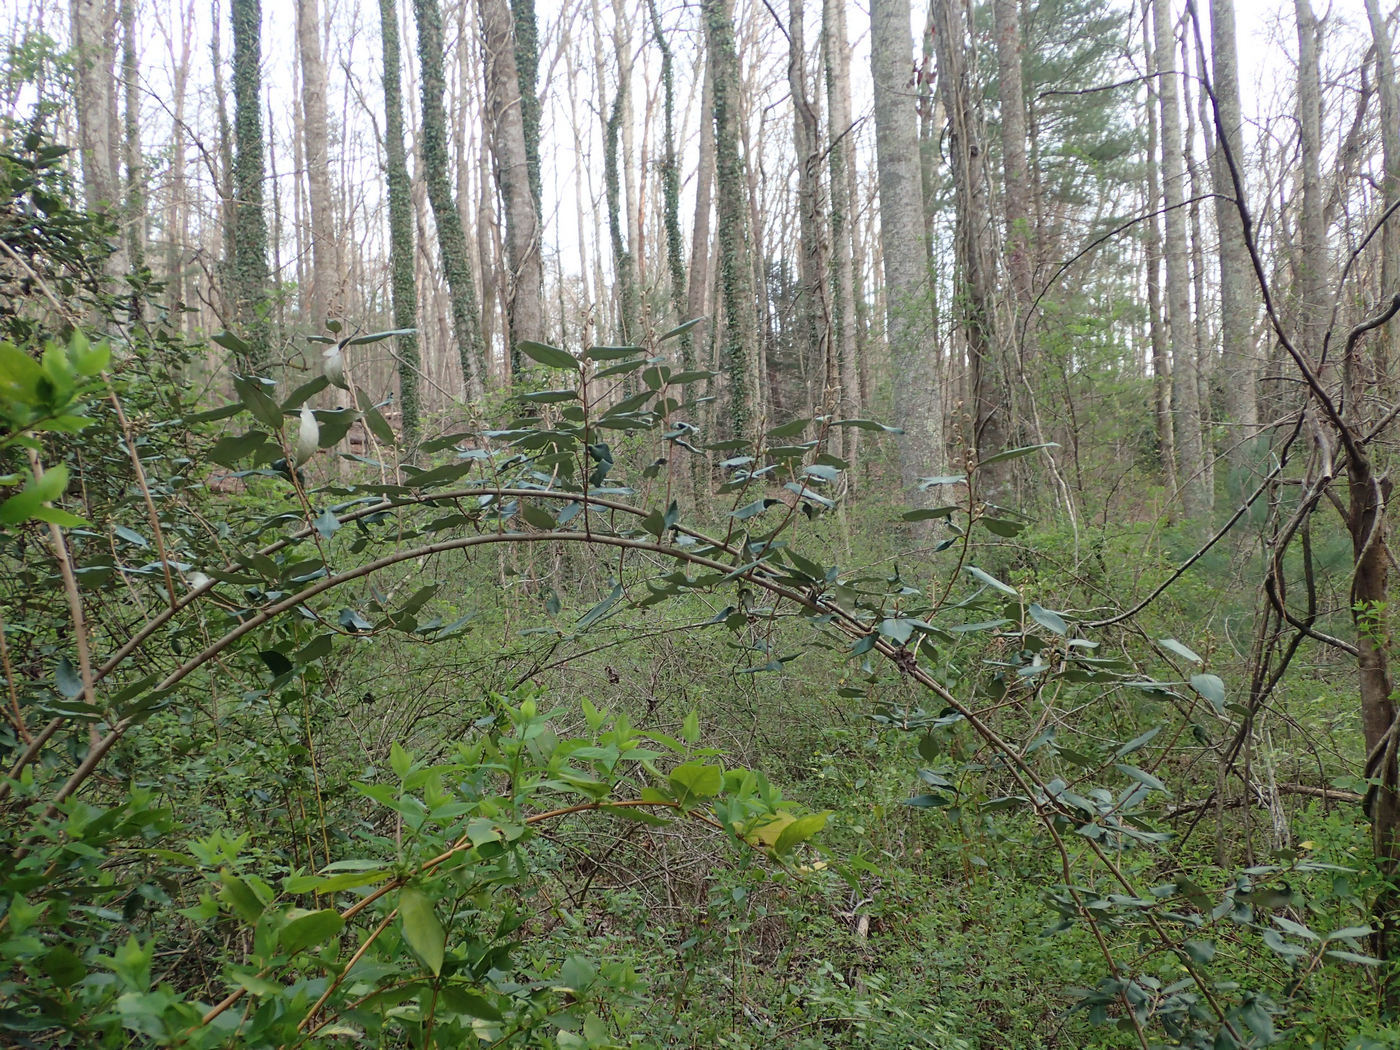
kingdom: Plantae
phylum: Tracheophyta
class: Magnoliopsida
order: Rosales
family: Elaeagnaceae
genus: Elaeagnus
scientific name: Elaeagnus pungens
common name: Spiny oleaster
